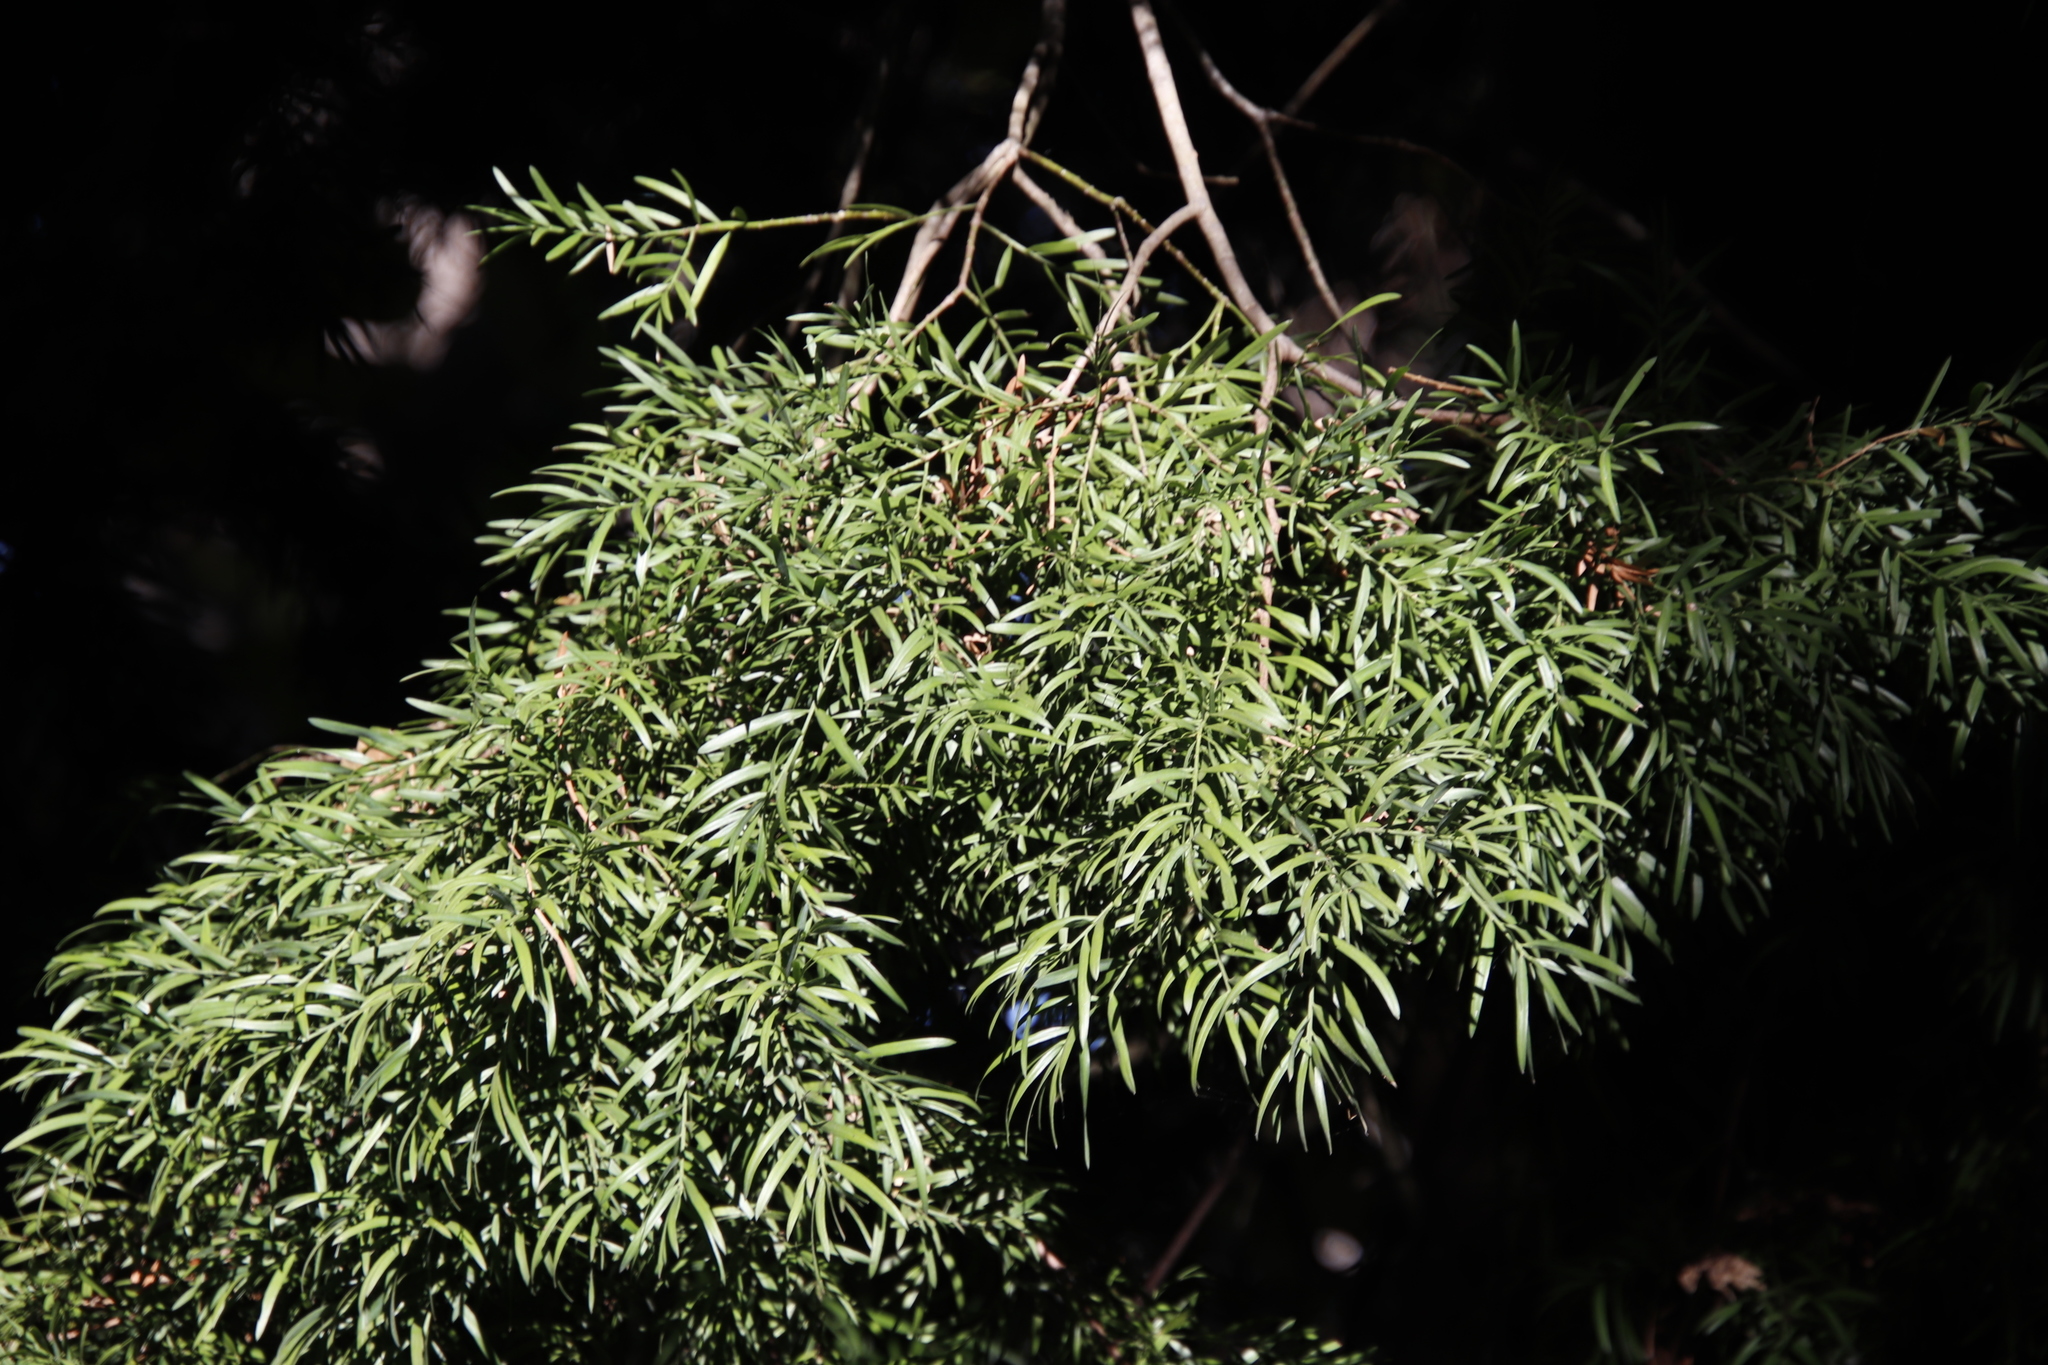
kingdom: Plantae
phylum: Tracheophyta
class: Pinopsida
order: Pinales
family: Podocarpaceae
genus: Afrocarpus
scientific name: Afrocarpus falcatus
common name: Bastard yellowwood
